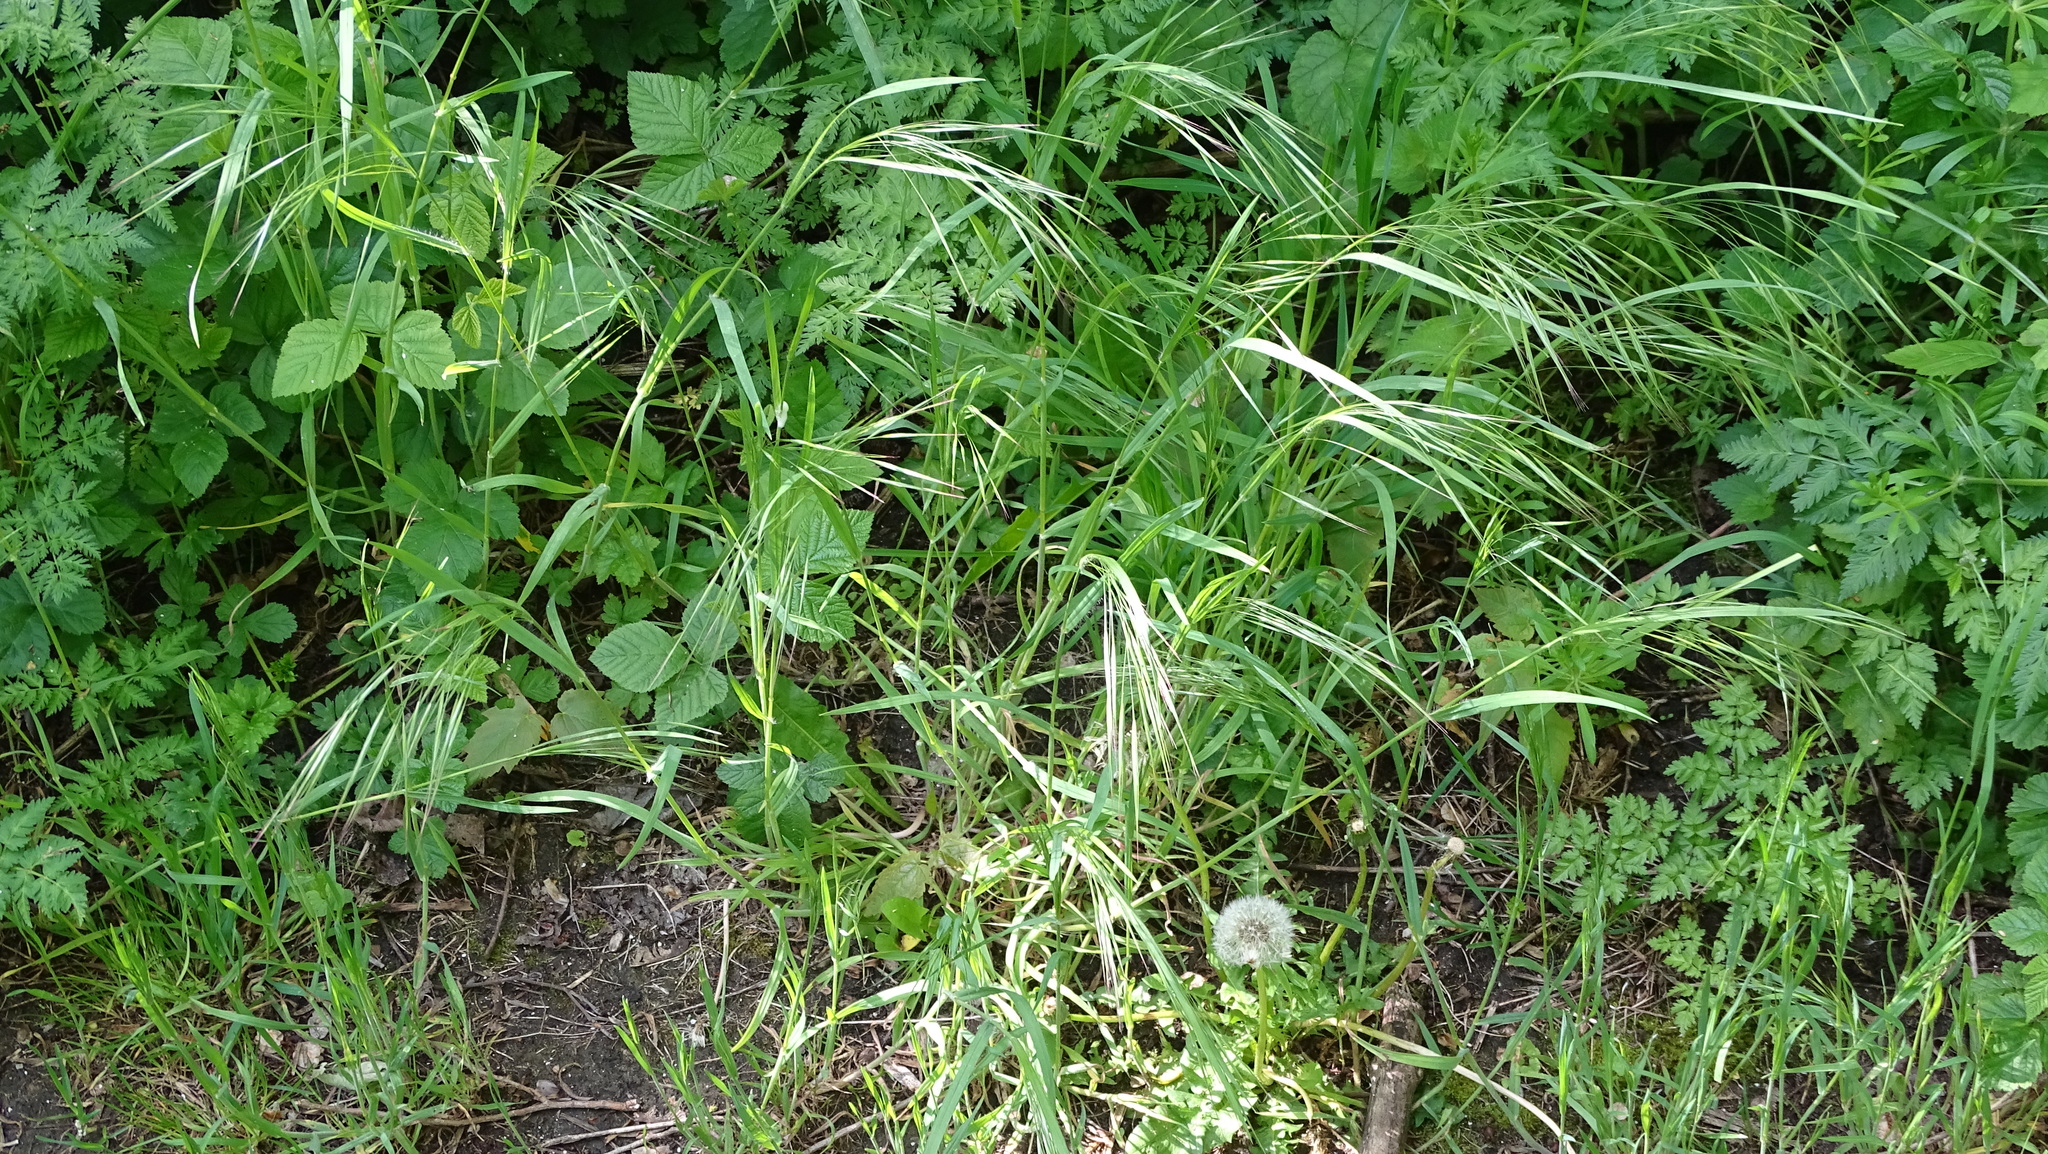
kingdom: Plantae
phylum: Tracheophyta
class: Liliopsida
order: Poales
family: Poaceae
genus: Bromus
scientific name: Bromus sterilis
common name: Poverty brome
